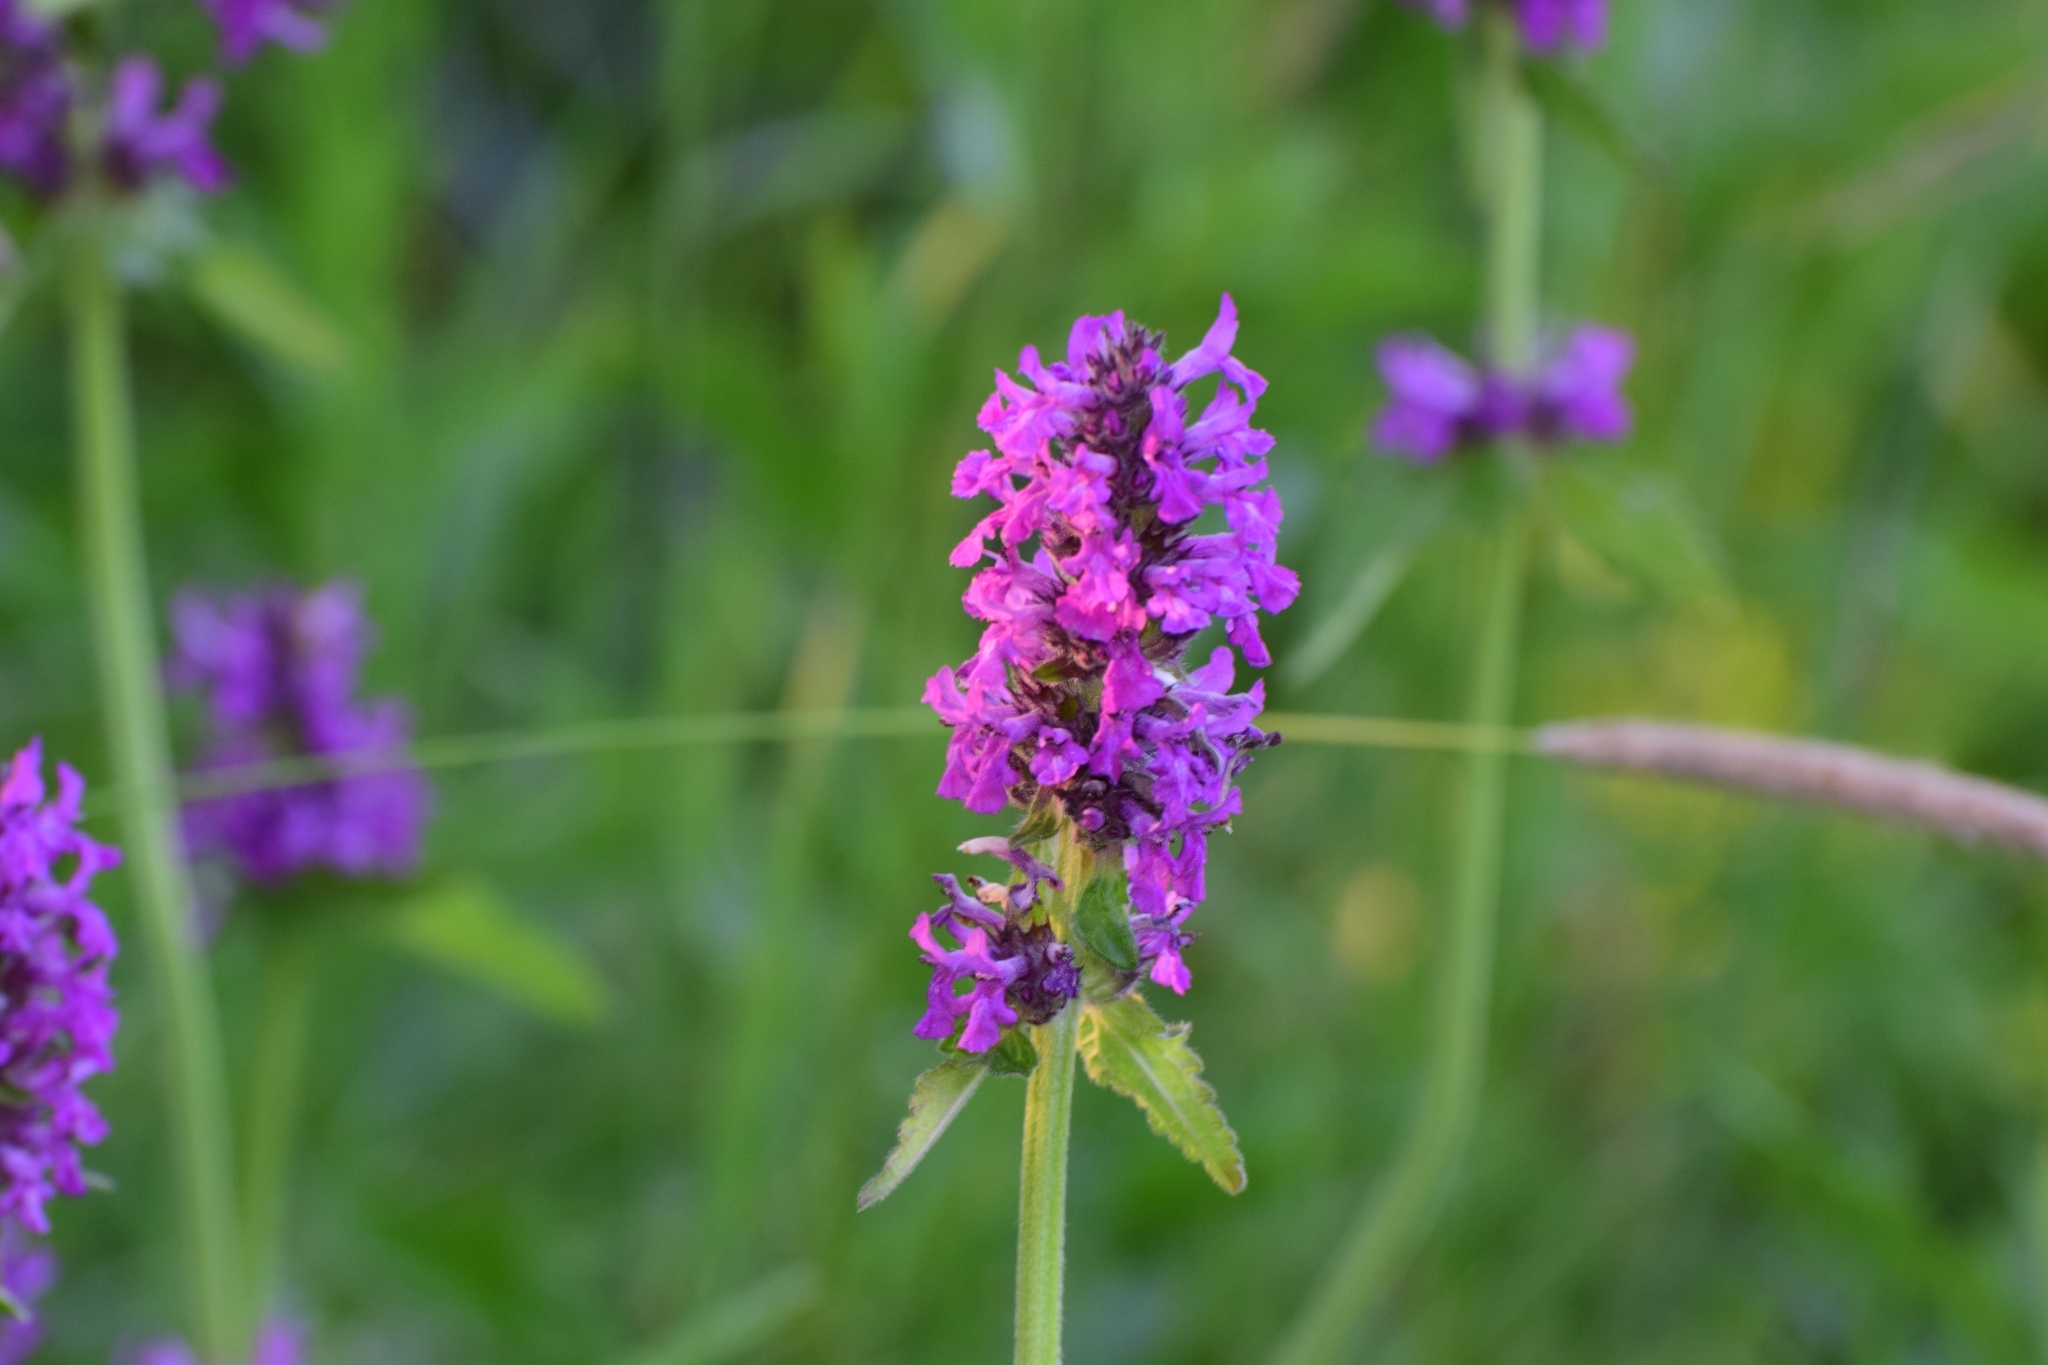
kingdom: Plantae
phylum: Tracheophyta
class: Magnoliopsida
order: Lamiales
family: Lamiaceae
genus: Betonica
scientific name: Betonica officinalis
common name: Bishop's-wort
